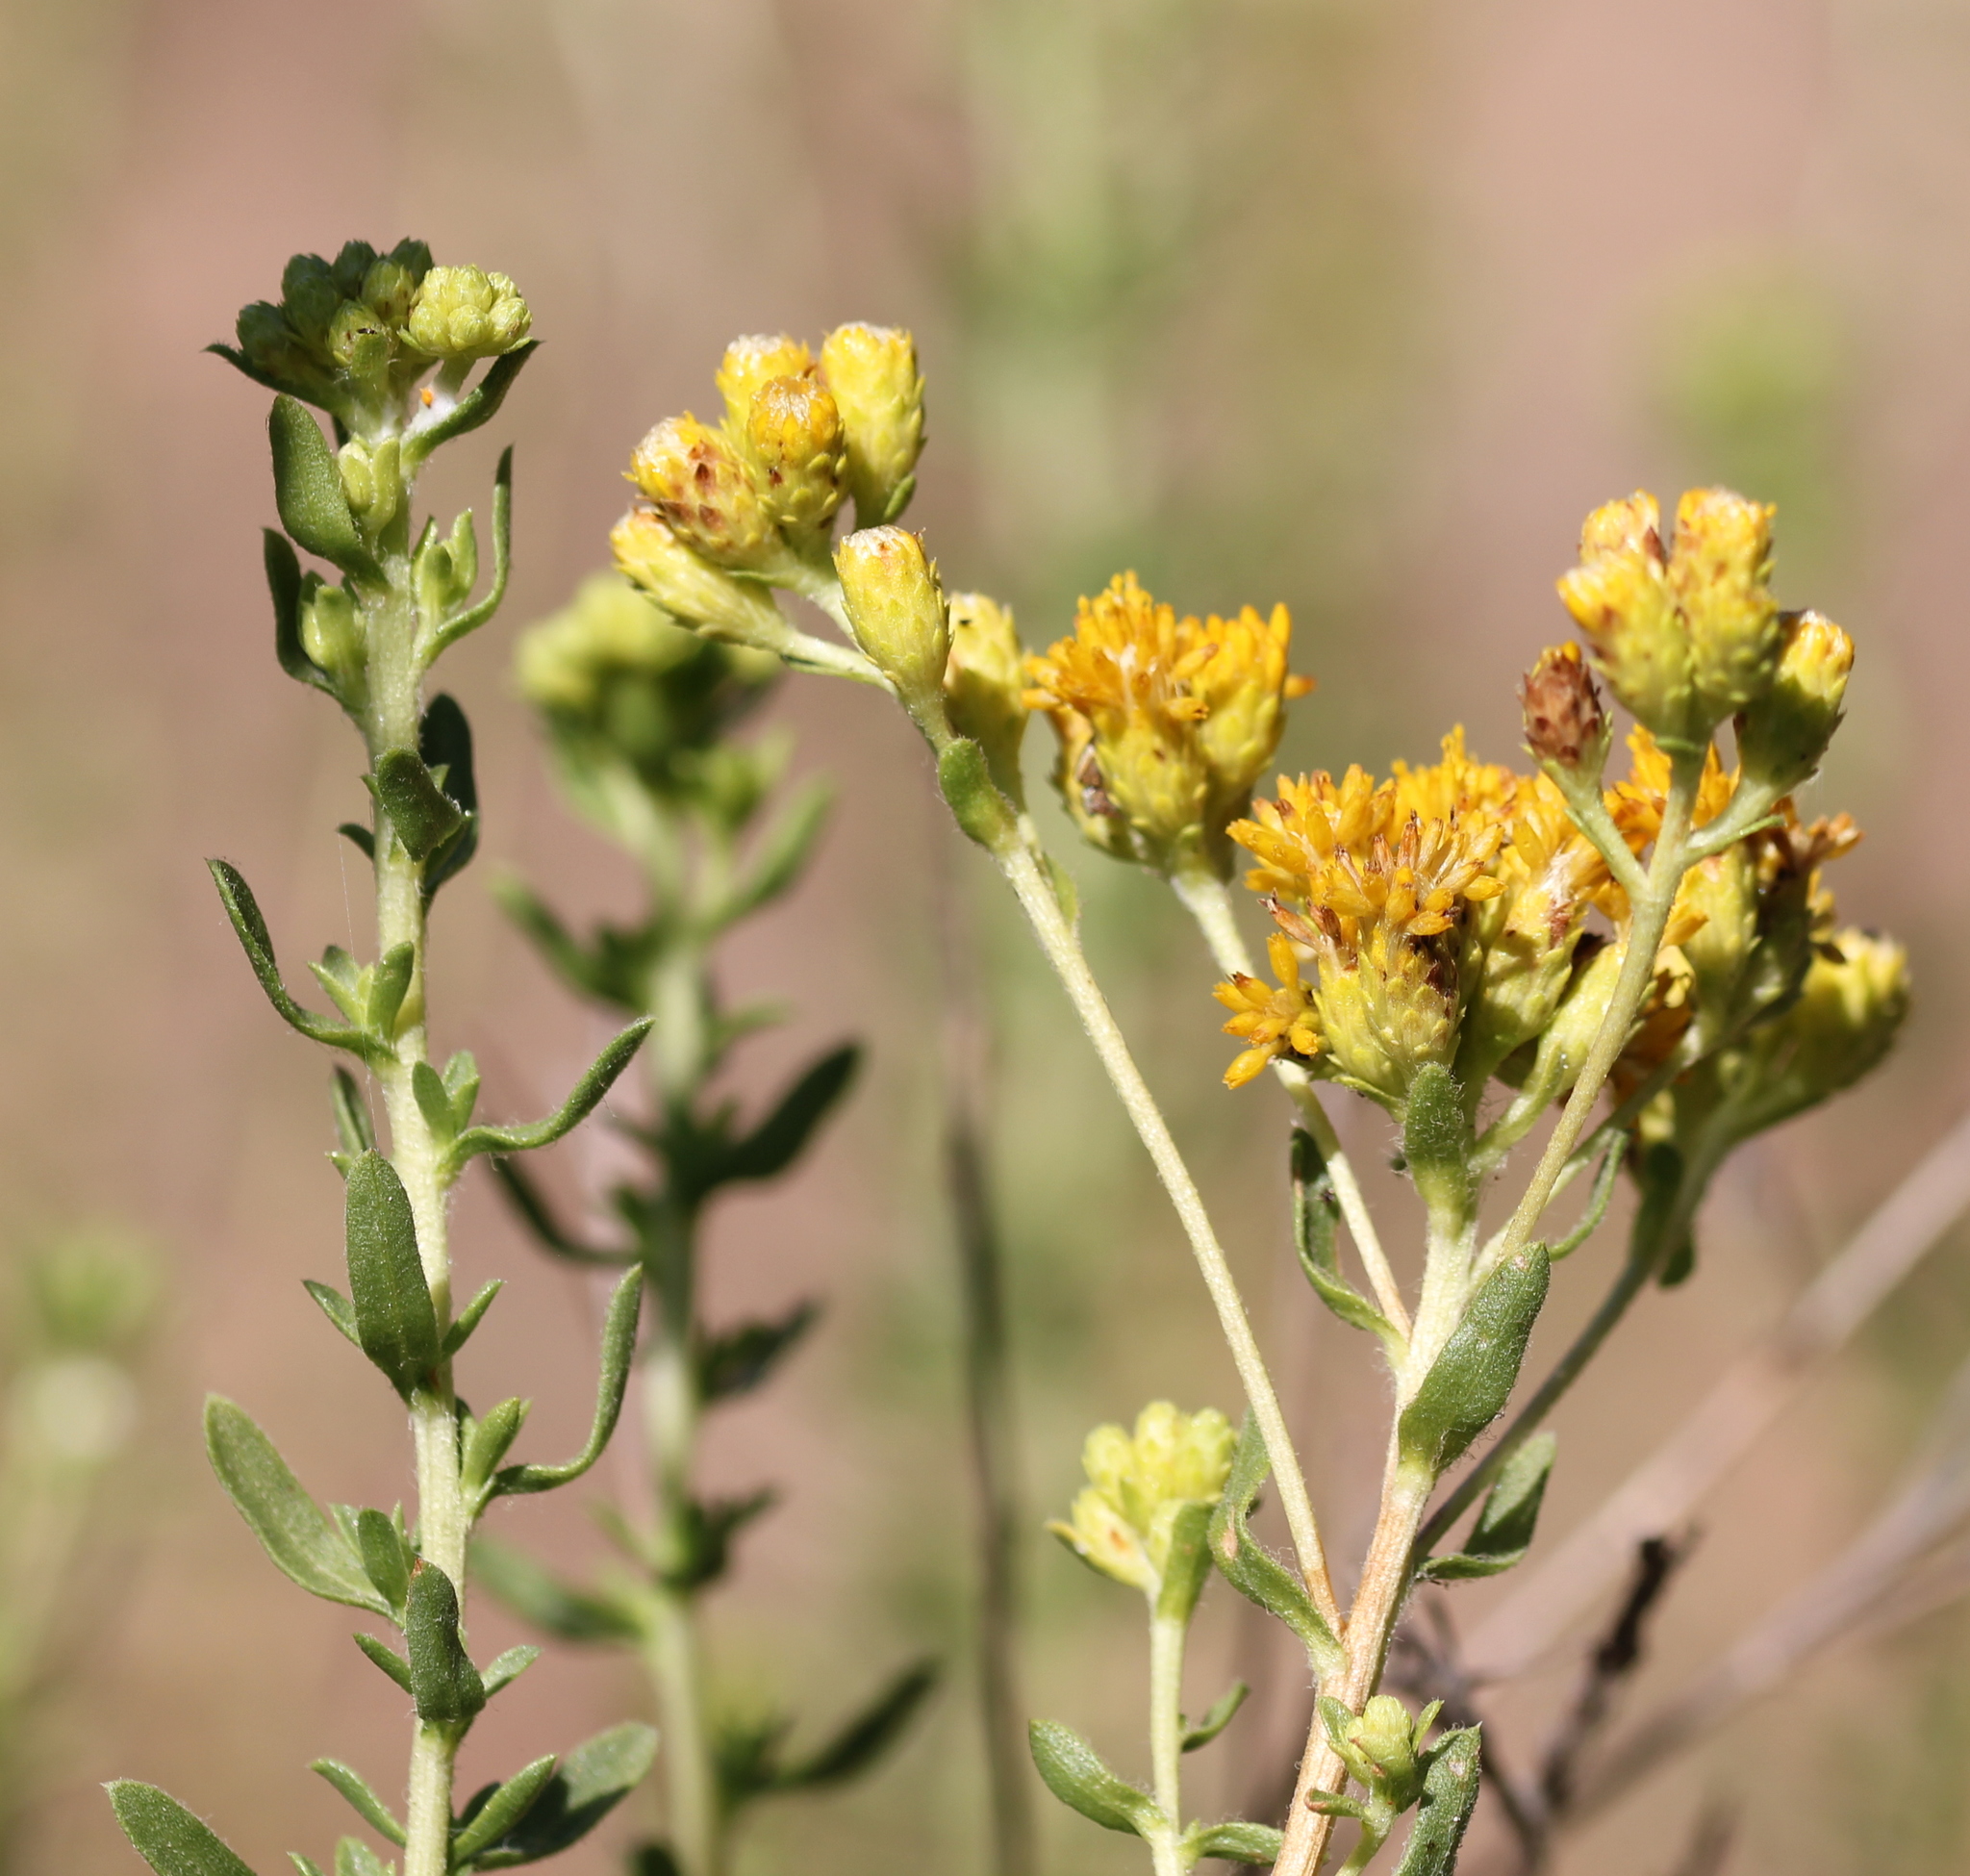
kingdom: Plantae
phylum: Tracheophyta
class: Magnoliopsida
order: Asterales
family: Asteraceae
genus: Isocoma
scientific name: Isocoma menziesii
